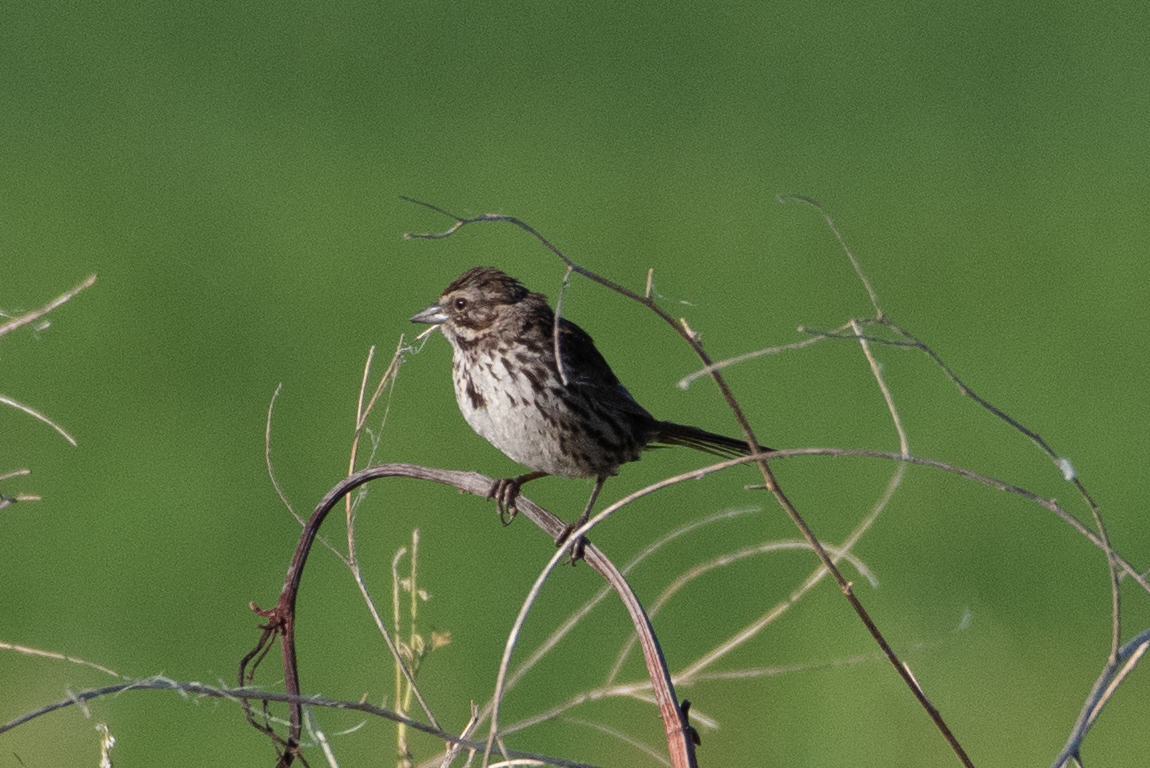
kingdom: Animalia
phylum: Chordata
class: Aves
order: Passeriformes
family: Passerellidae
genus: Melospiza
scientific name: Melospiza melodia
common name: Song sparrow
